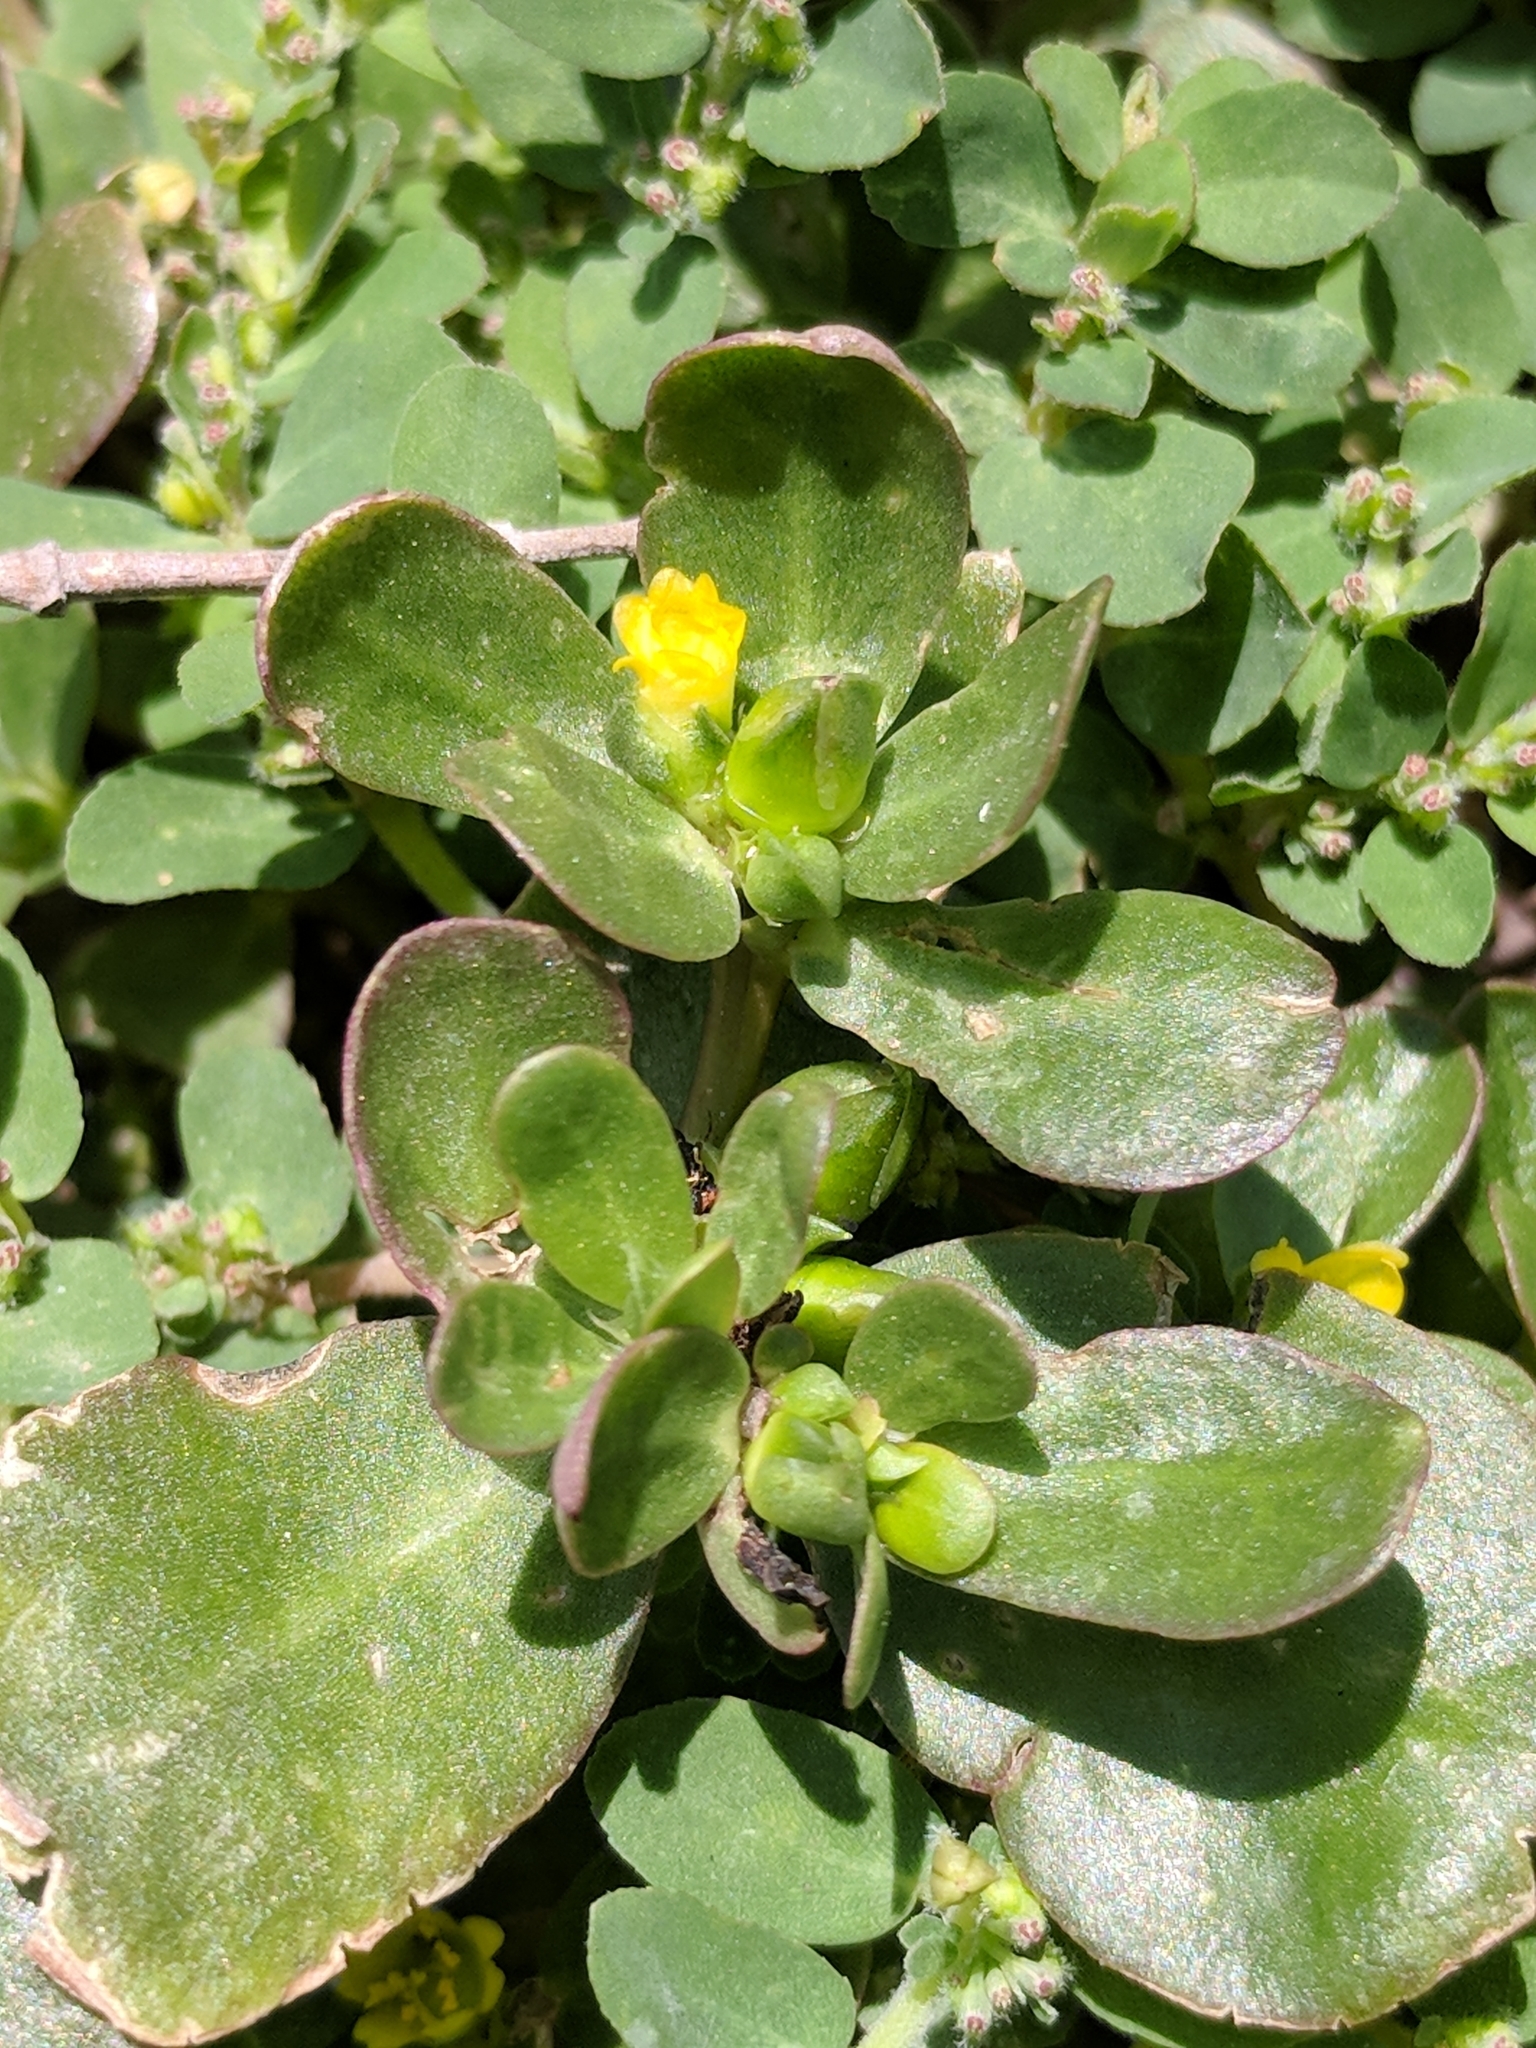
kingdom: Plantae
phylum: Tracheophyta
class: Magnoliopsida
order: Caryophyllales
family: Portulacaceae
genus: Portulaca
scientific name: Portulaca oleracea
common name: Common purslane
